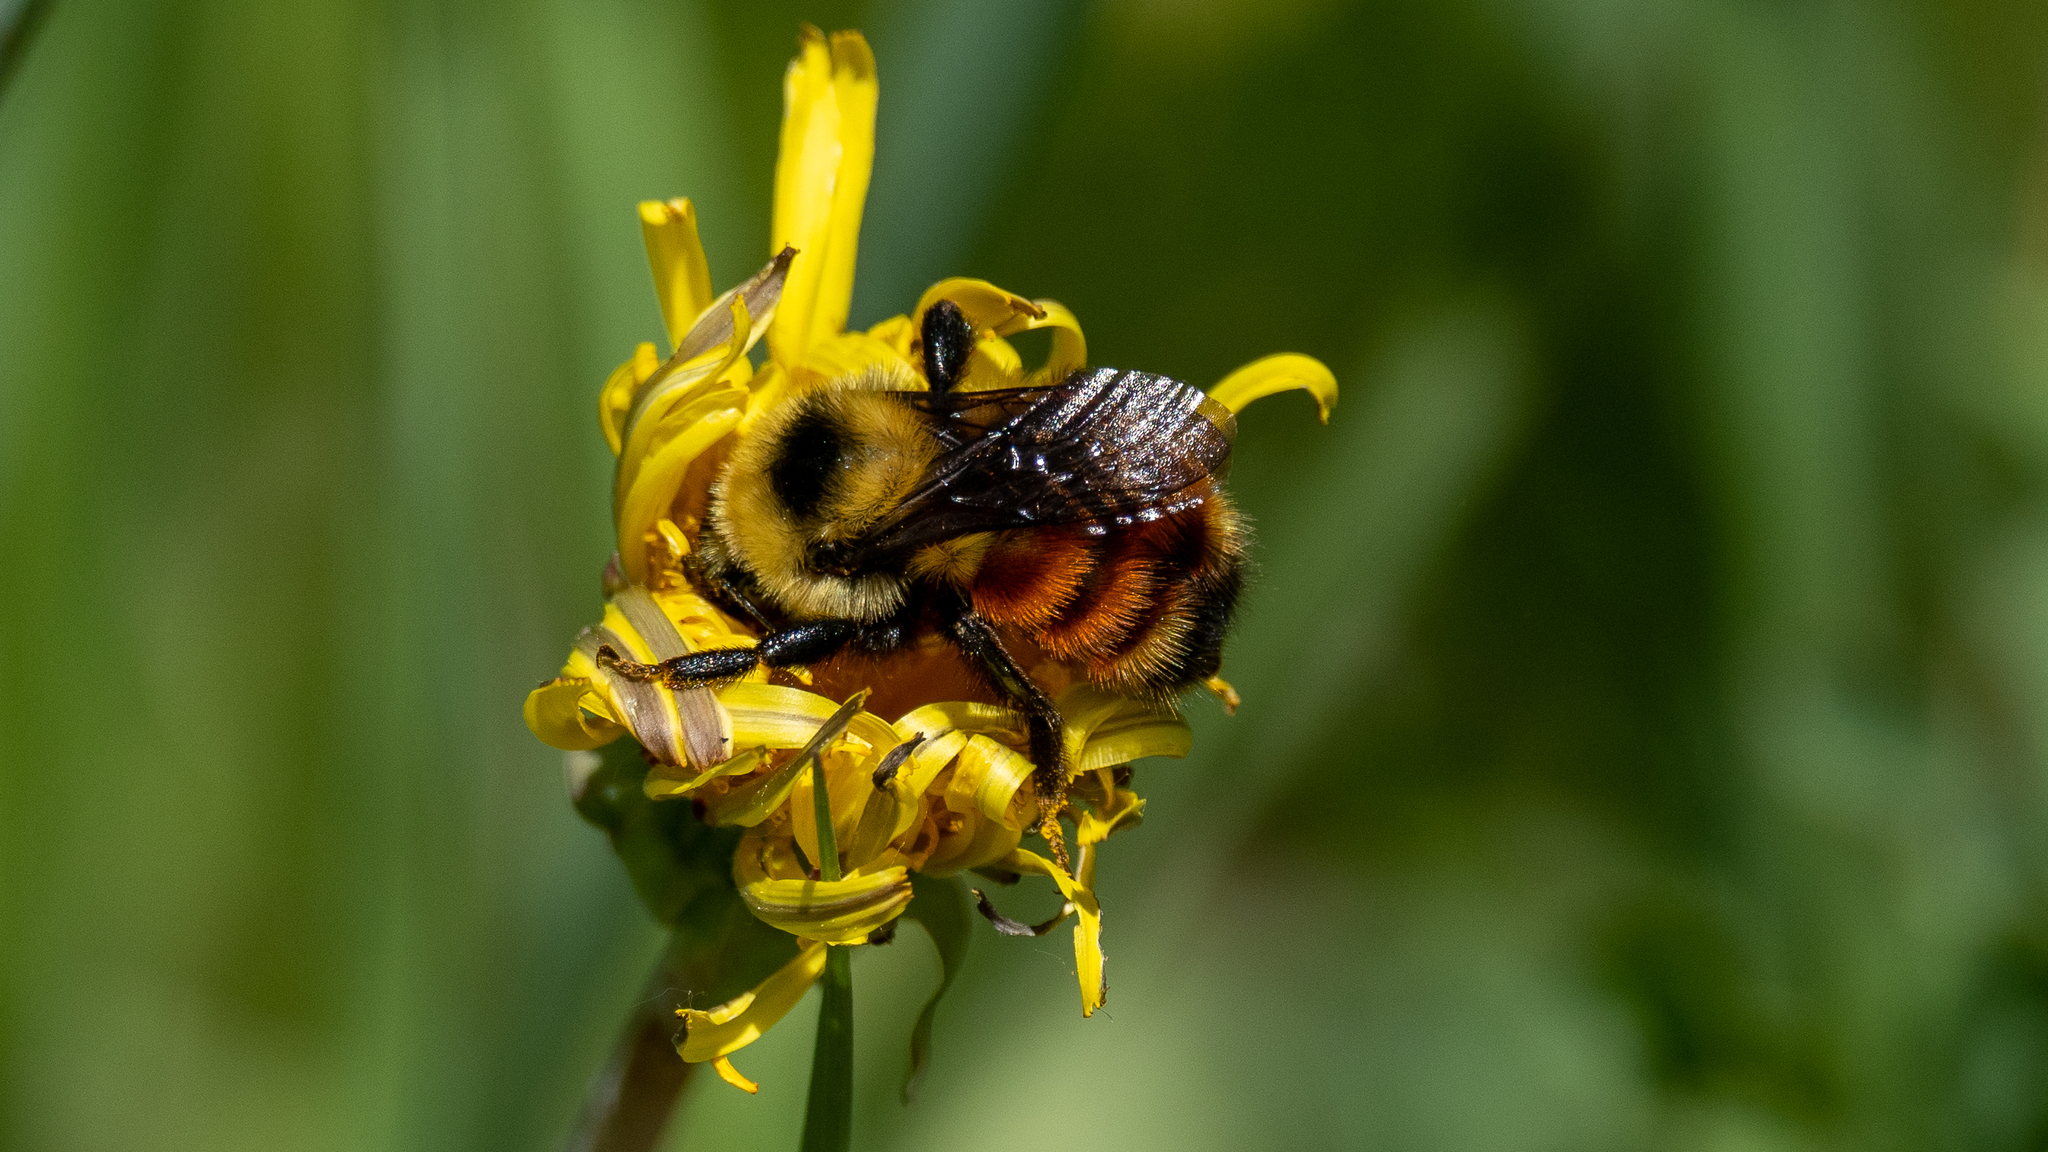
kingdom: Animalia
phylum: Arthropoda
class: Insecta
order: Hymenoptera
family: Apidae
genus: Bombus
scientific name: Bombus rufocinctus
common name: Red-belted bumble bee
